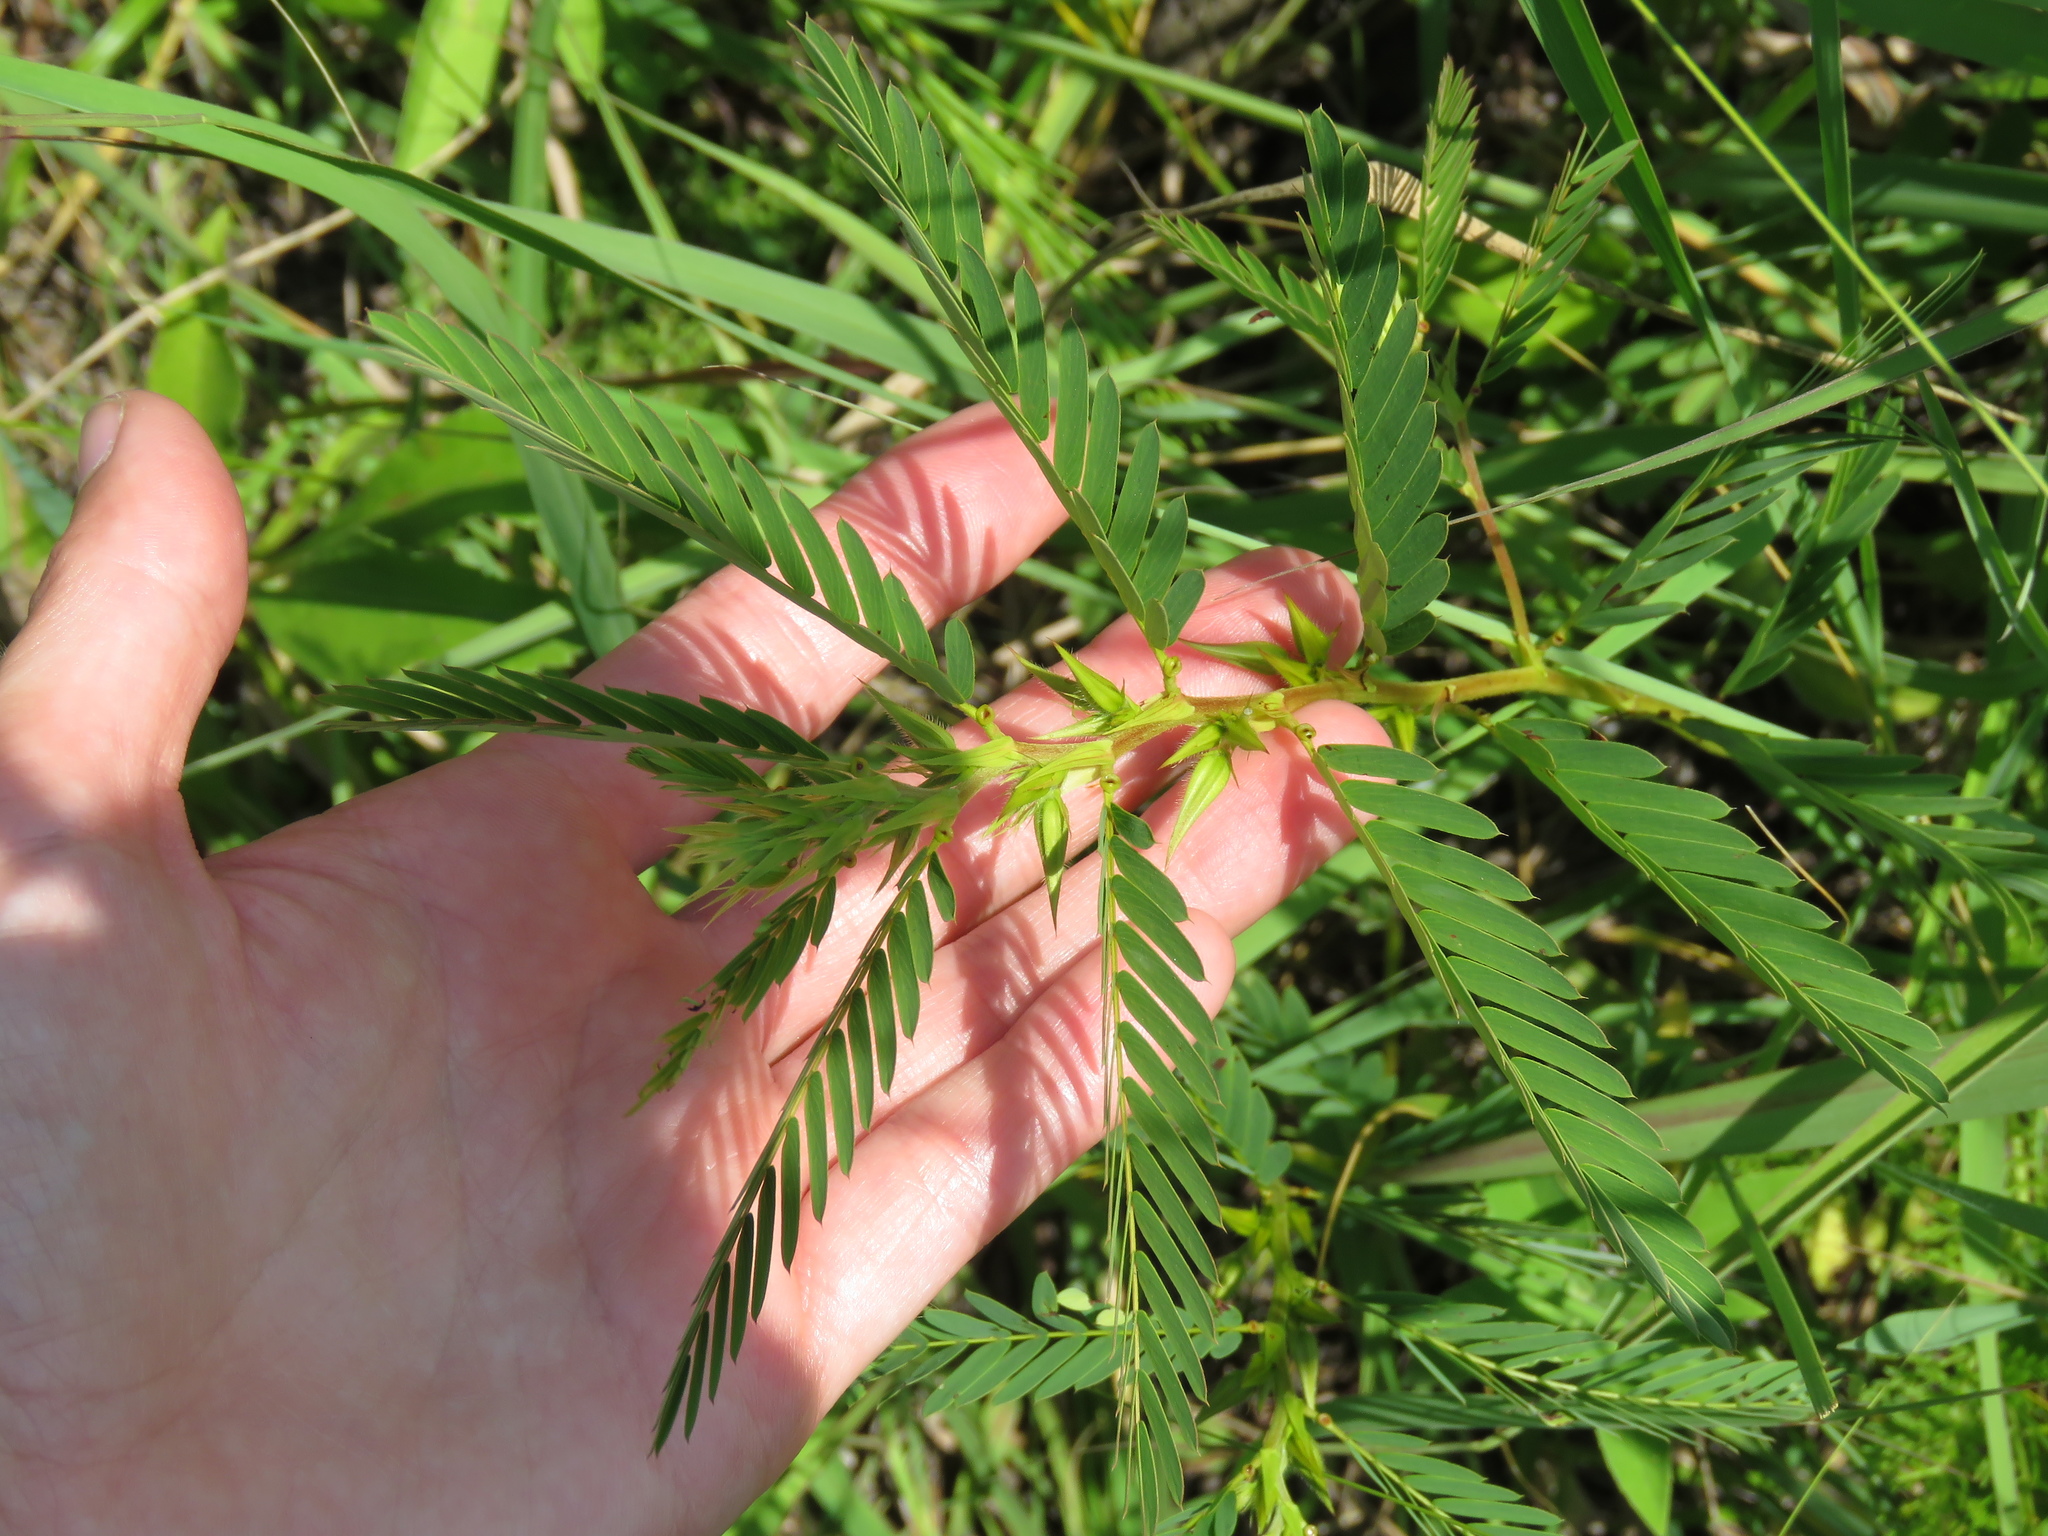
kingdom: Plantae
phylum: Tracheophyta
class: Magnoliopsida
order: Fabales
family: Fabaceae
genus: Chamaecrista
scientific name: Chamaecrista fasciculata
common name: Golden cassia
